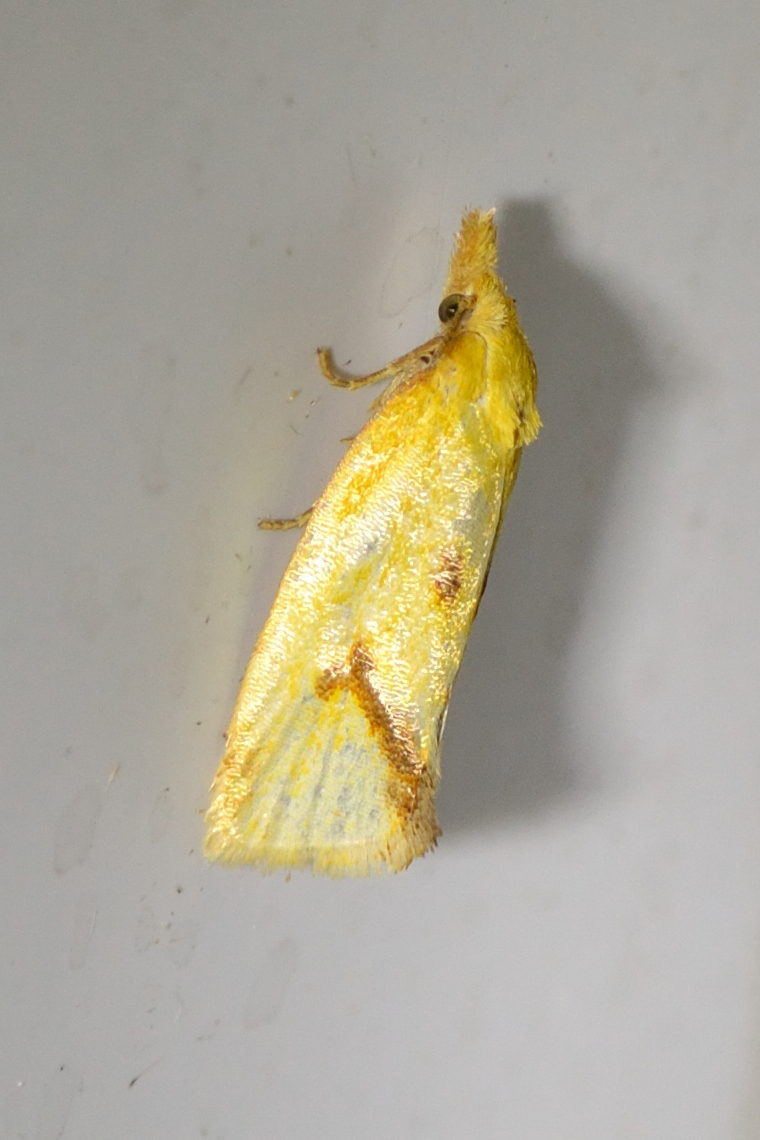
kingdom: Animalia
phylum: Arthropoda
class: Insecta
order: Lepidoptera
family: Tortricidae
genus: Agapeta
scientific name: Agapeta hamana
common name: Common yellow conch
